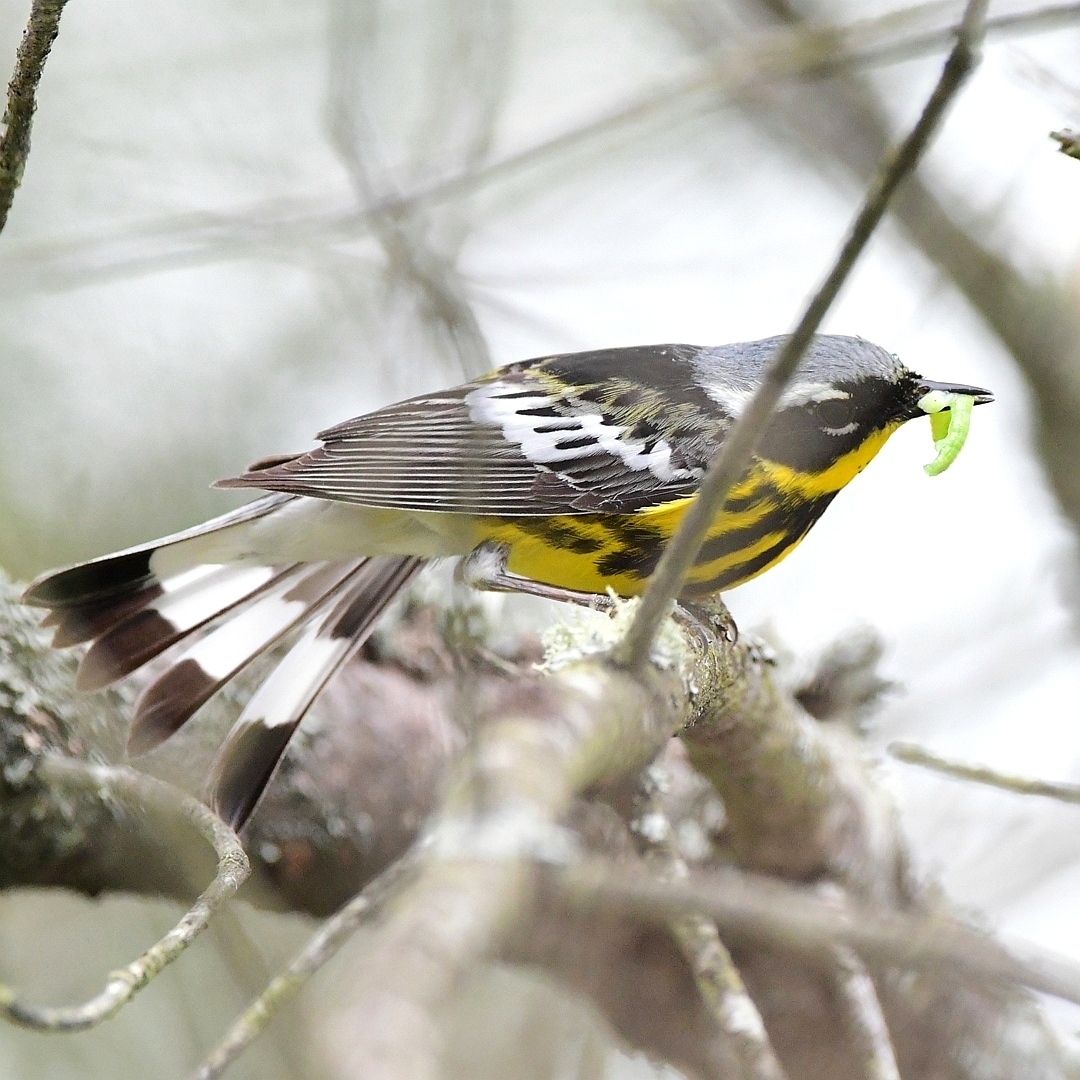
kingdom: Animalia
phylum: Chordata
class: Aves
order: Passeriformes
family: Parulidae
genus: Setophaga
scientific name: Setophaga magnolia
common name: Magnolia warbler
